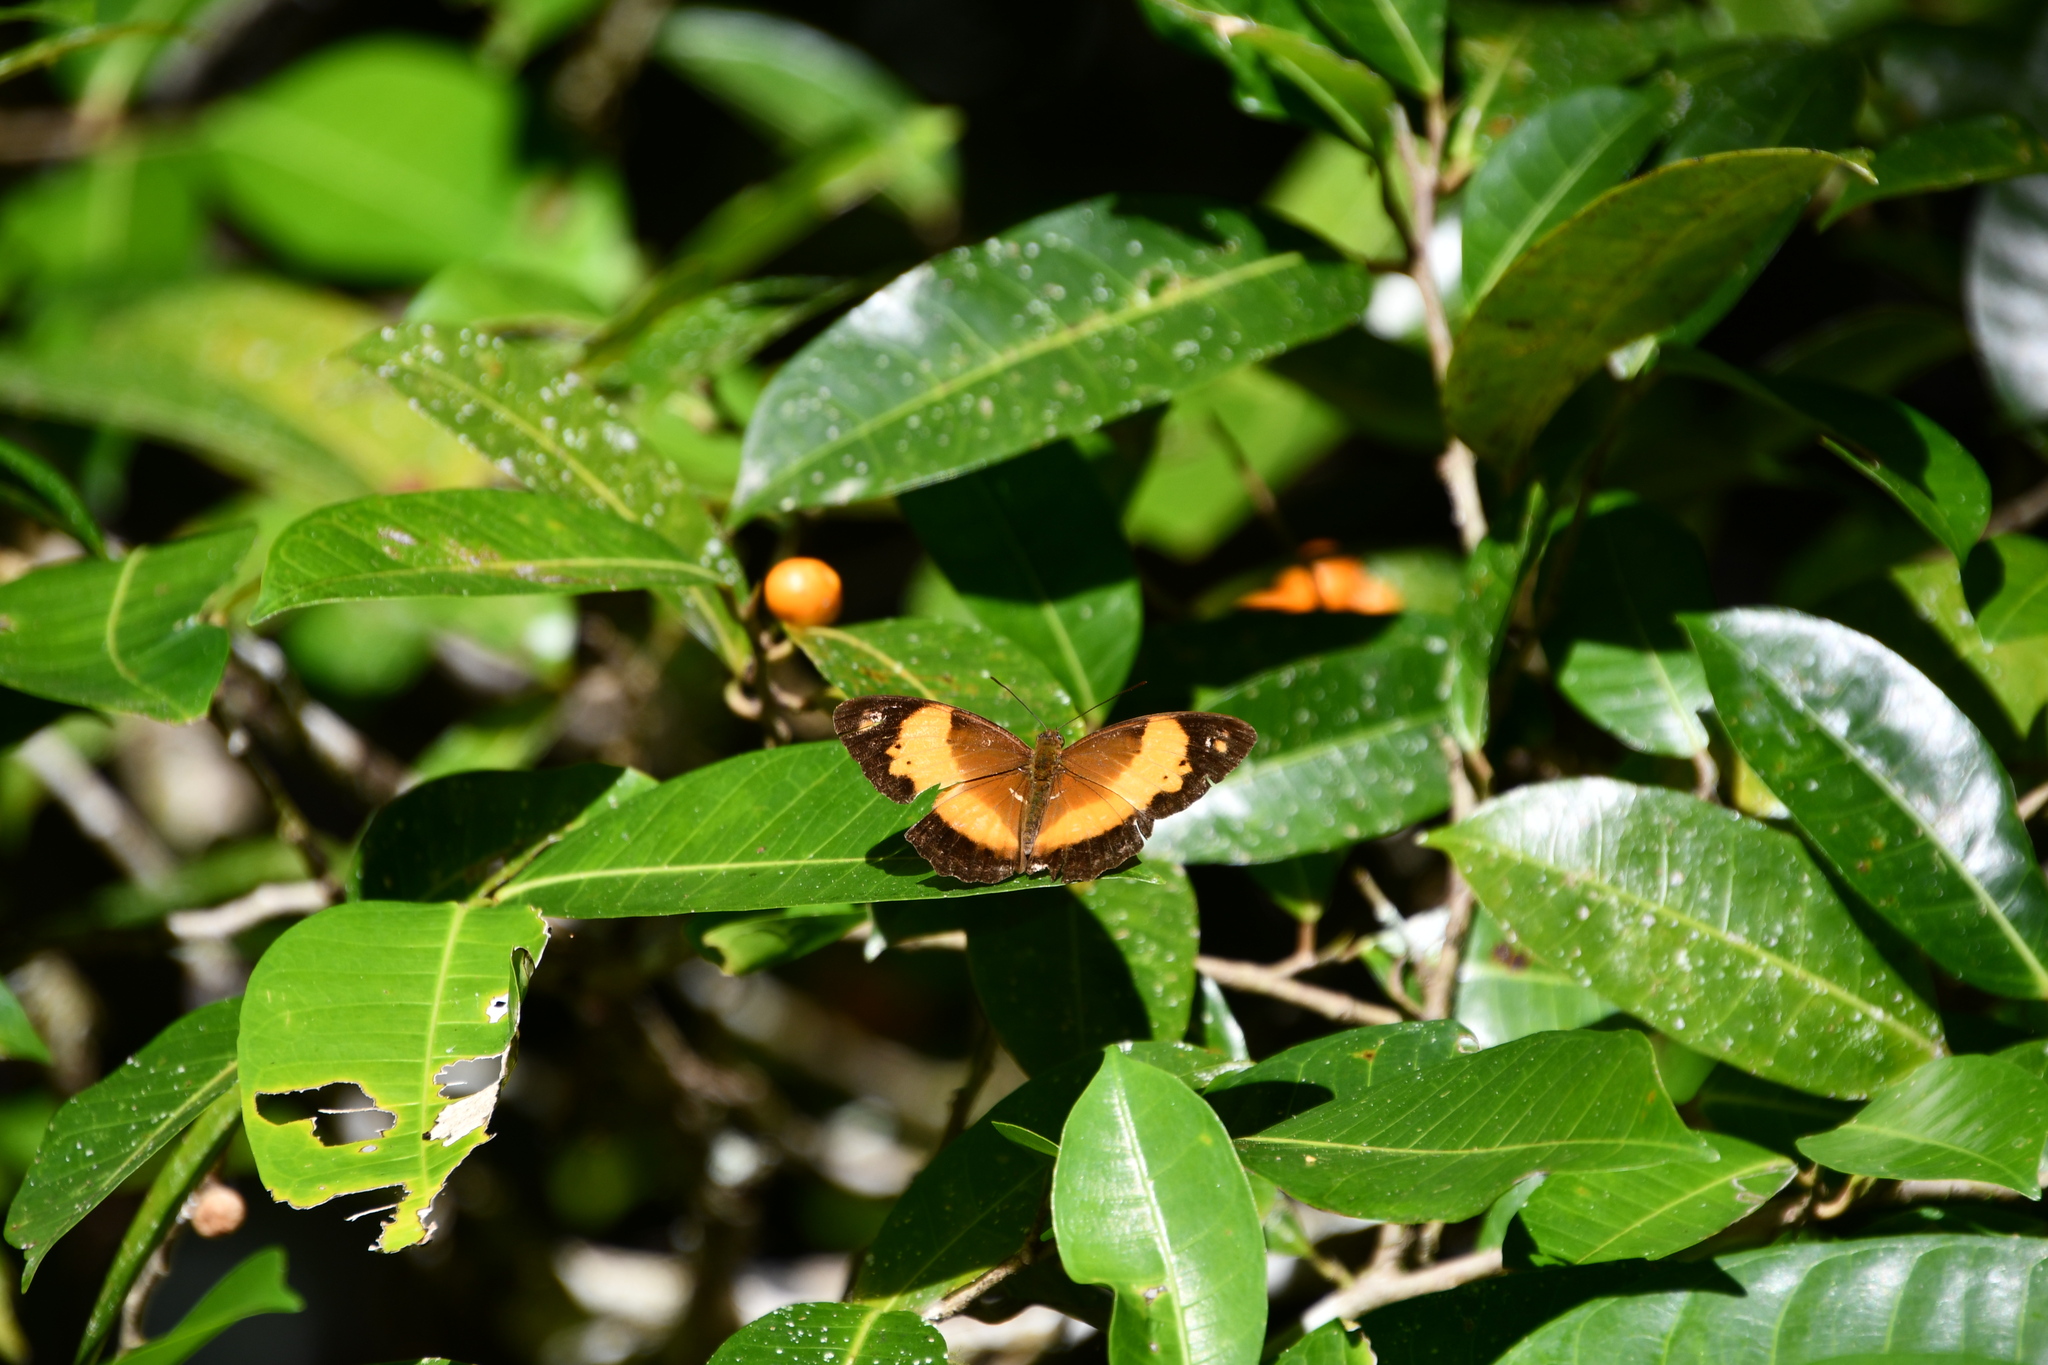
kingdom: Animalia
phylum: Arthropoda
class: Insecta
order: Lepidoptera
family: Nymphalidae
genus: Cupha
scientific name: Cupha prosope
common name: Bordered rustic
